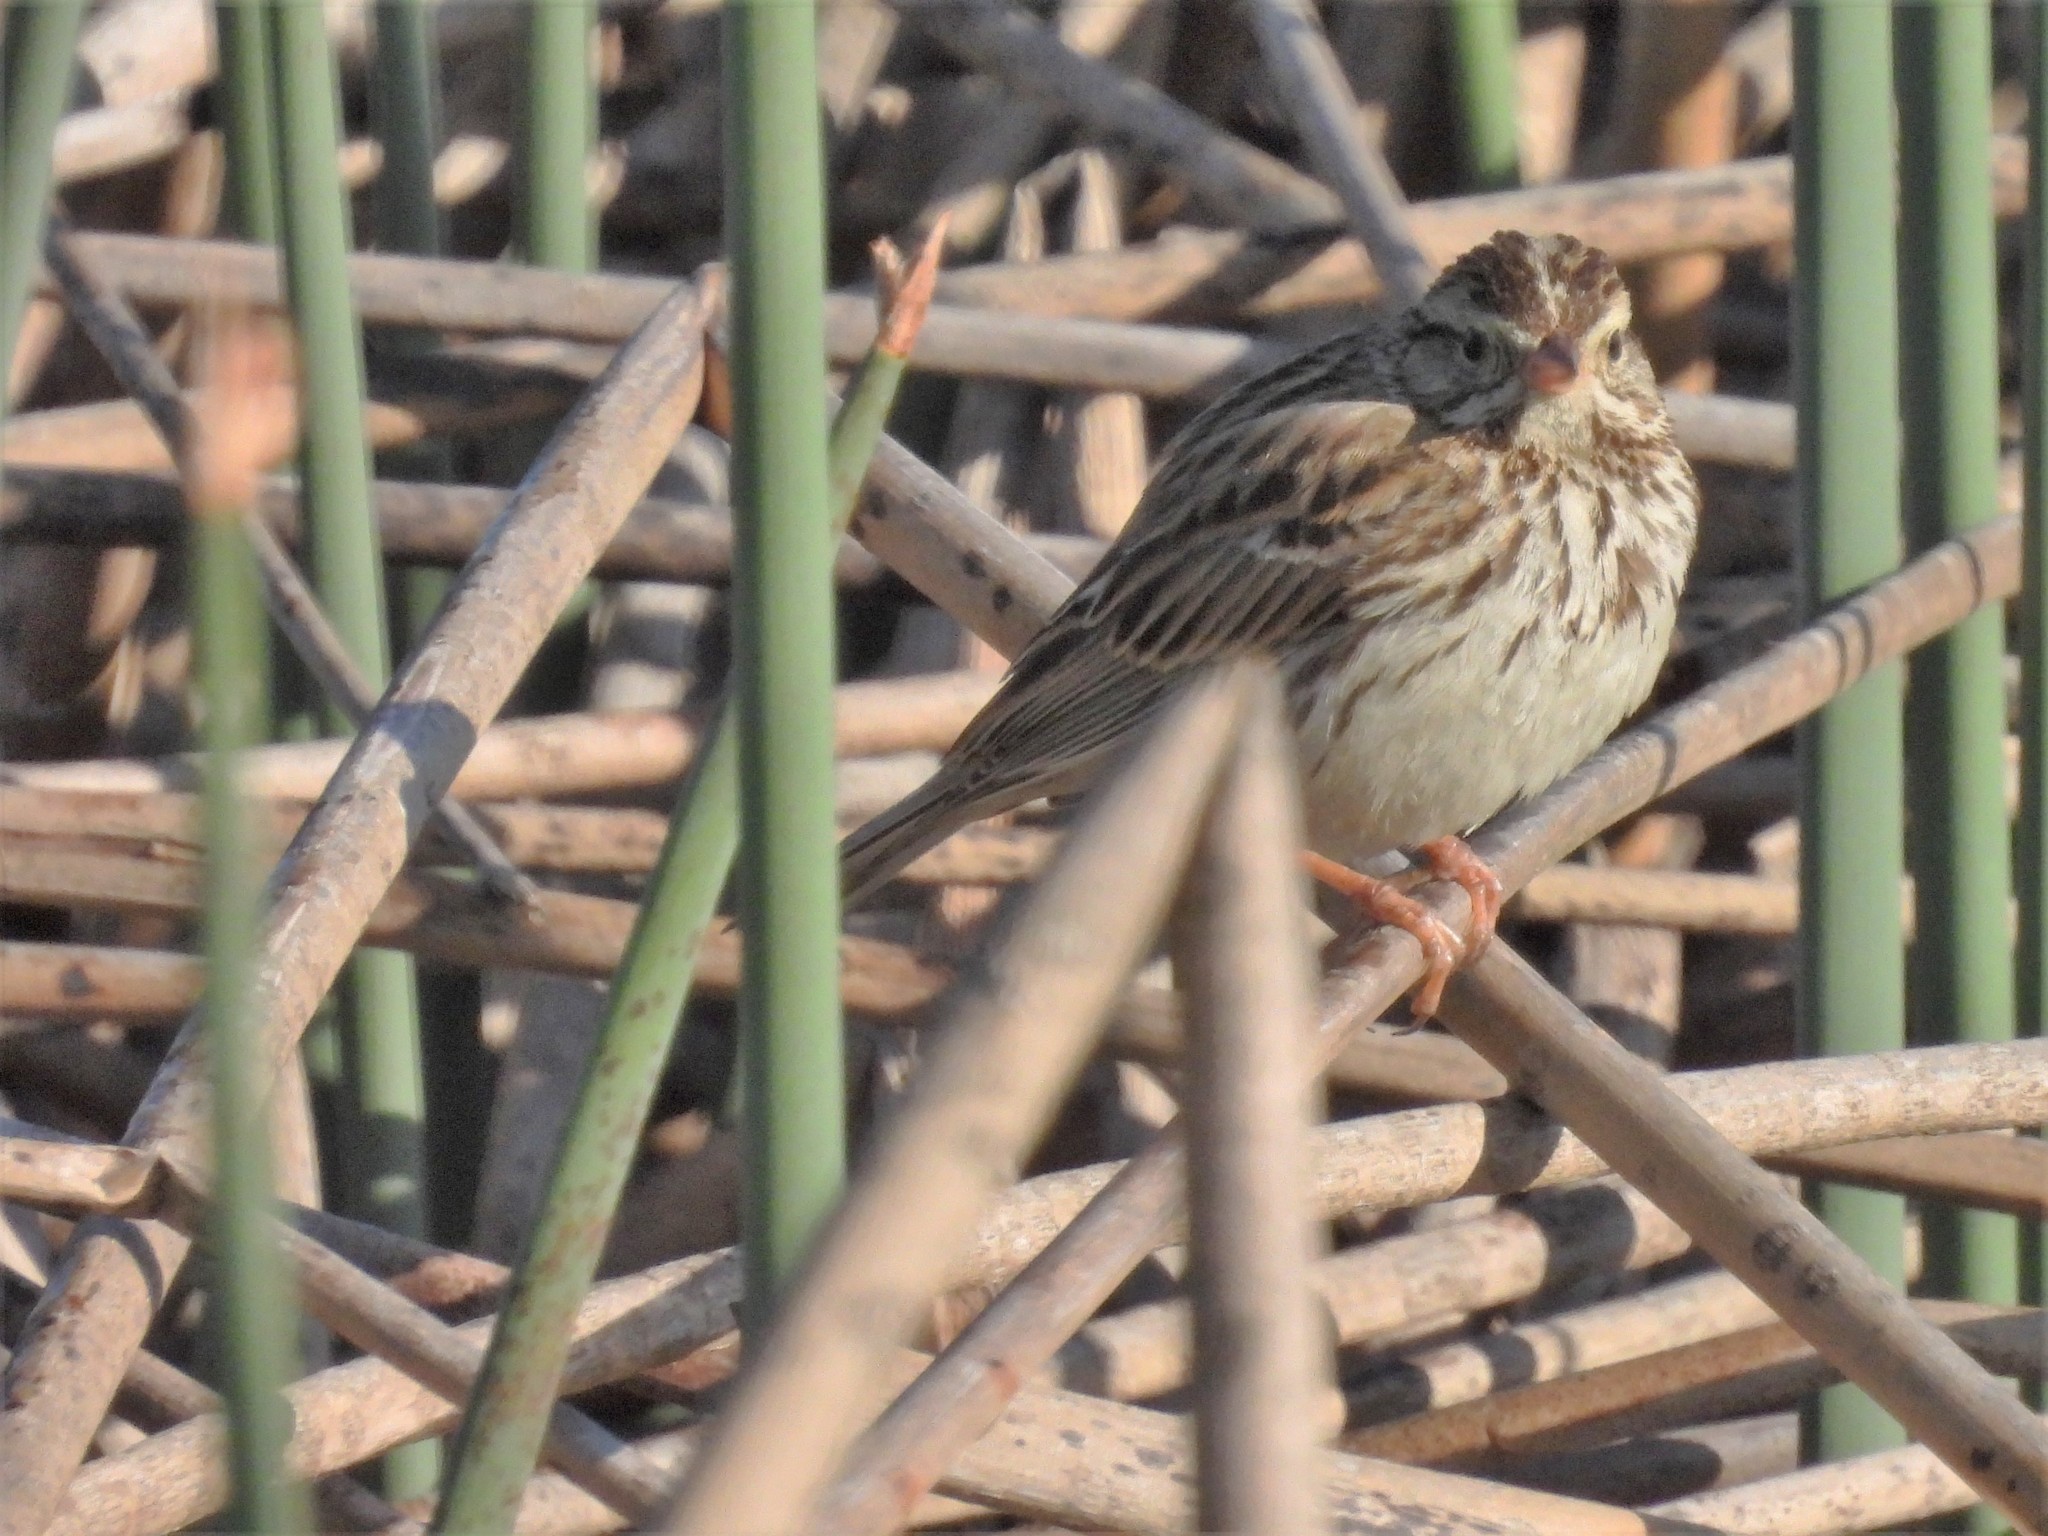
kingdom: Animalia
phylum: Chordata
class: Aves
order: Passeriformes
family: Passerellidae
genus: Passerculus
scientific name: Passerculus sandwichensis
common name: Savannah sparrow
